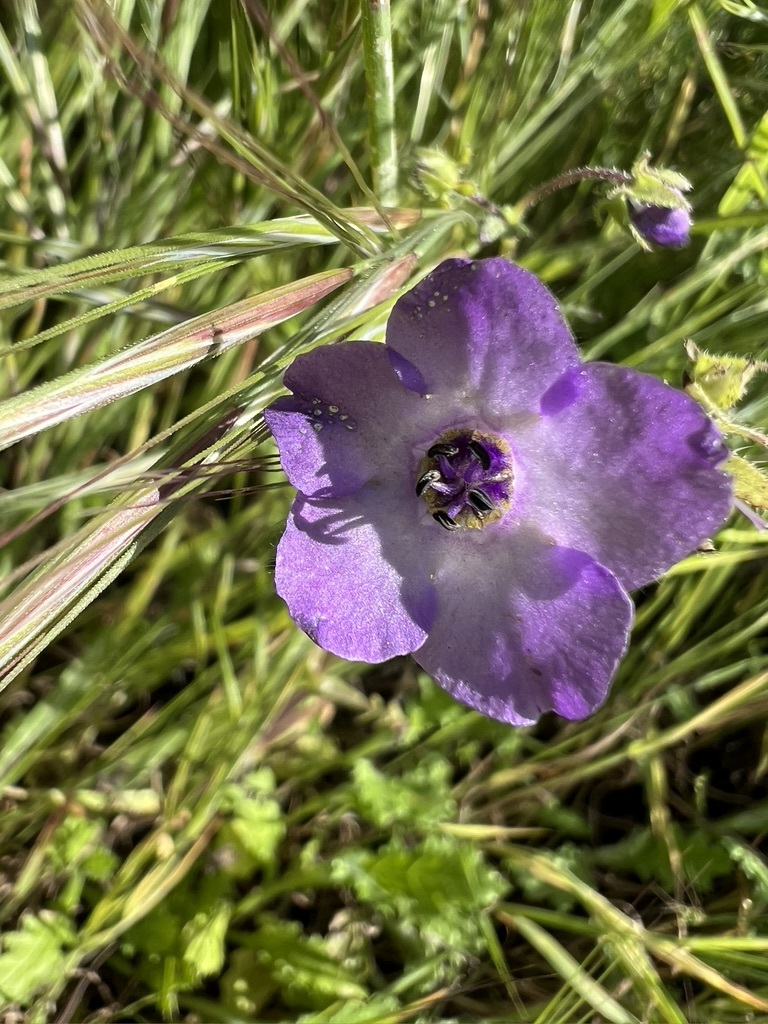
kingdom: Plantae
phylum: Tracheophyta
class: Magnoliopsida
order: Boraginales
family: Hydrophyllaceae
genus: Pholistoma
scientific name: Pholistoma auritum
